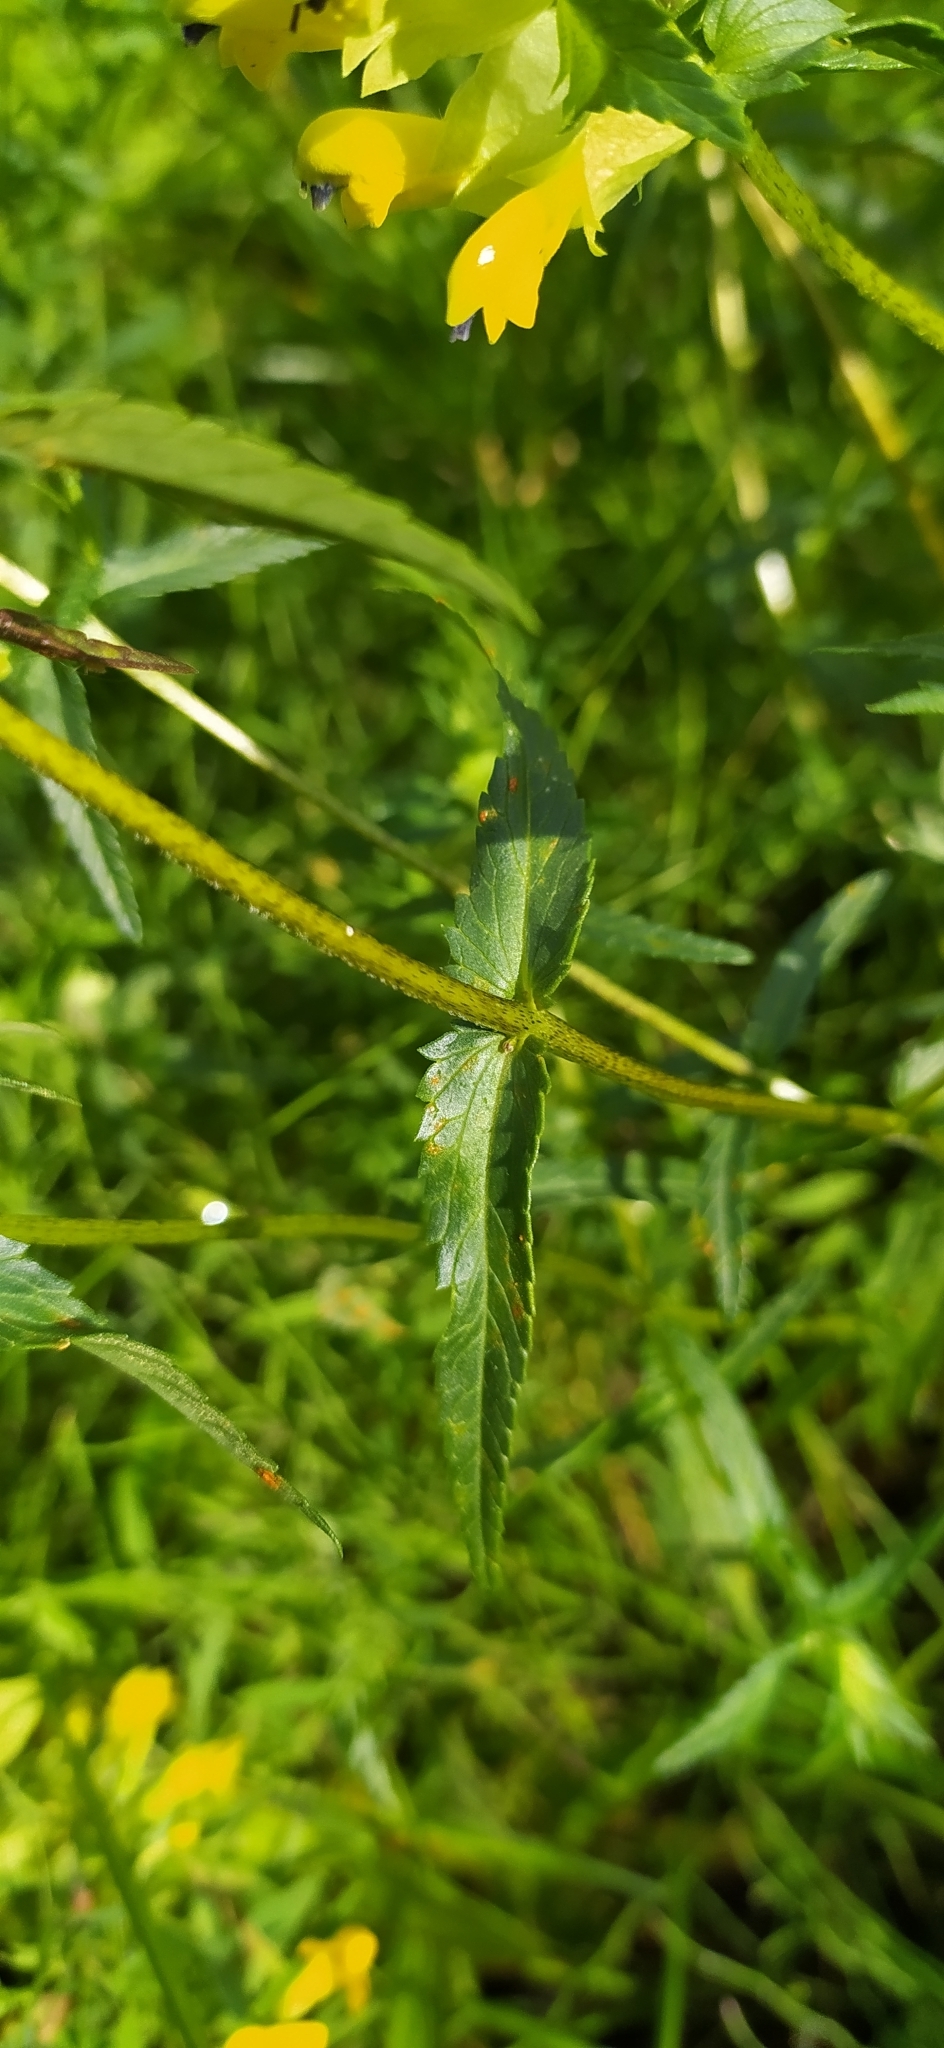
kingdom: Plantae
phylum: Tracheophyta
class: Magnoliopsida
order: Lamiales
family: Orobanchaceae
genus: Rhinanthus
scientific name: Rhinanthus serotinus
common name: Late-flowering yellow rattle
